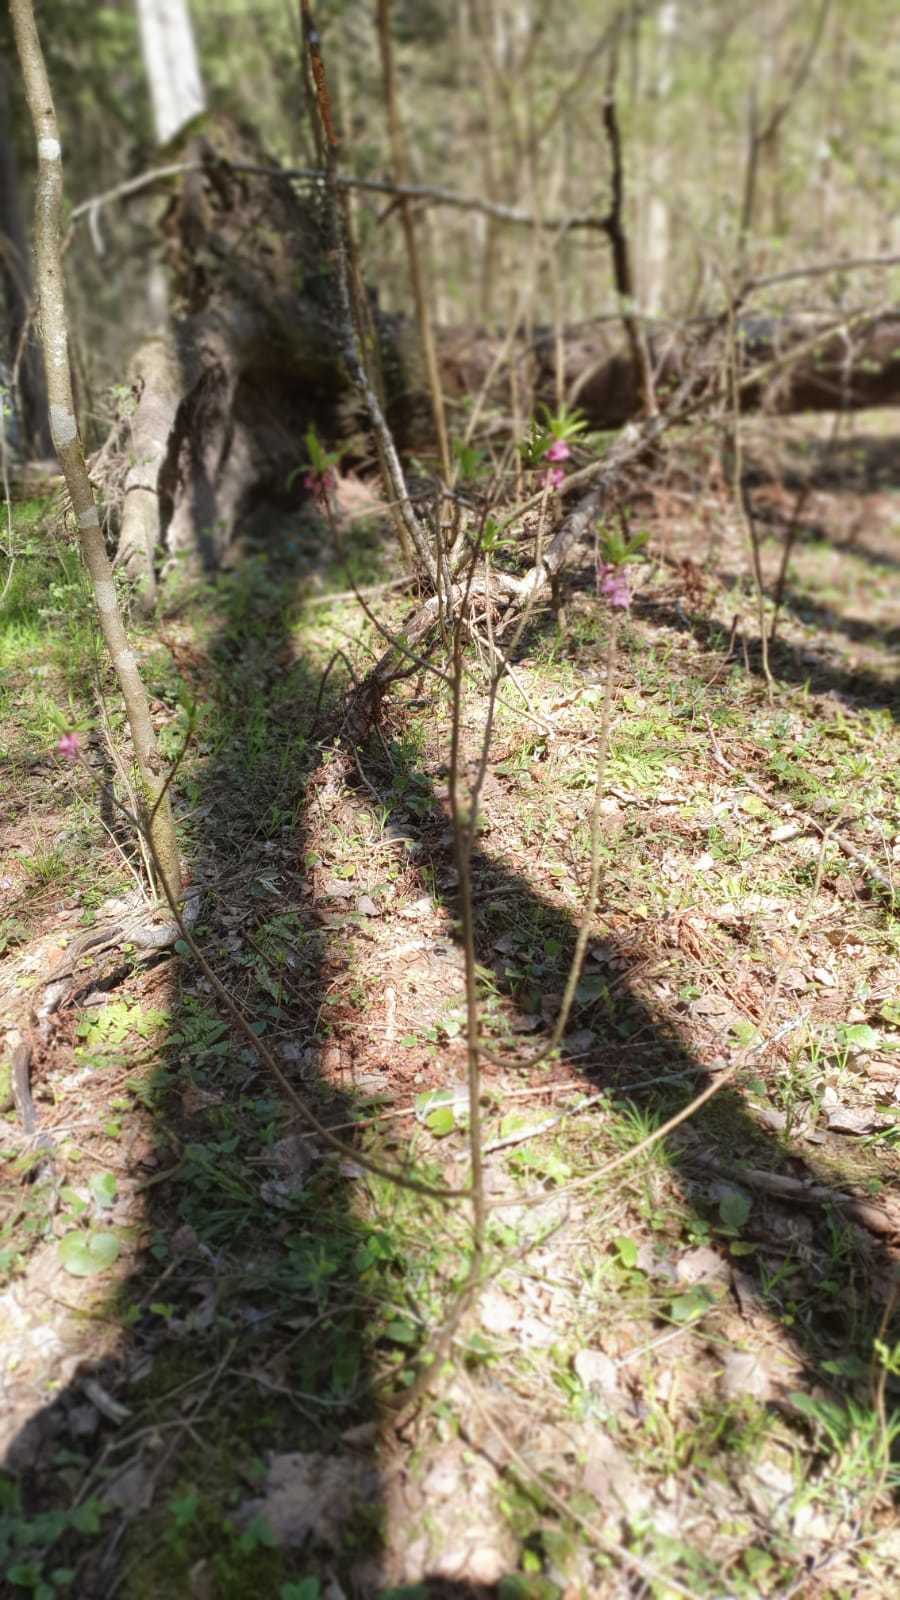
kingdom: Plantae
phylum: Tracheophyta
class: Magnoliopsida
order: Malvales
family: Thymelaeaceae
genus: Daphne
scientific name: Daphne mezereum
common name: Mezereon
